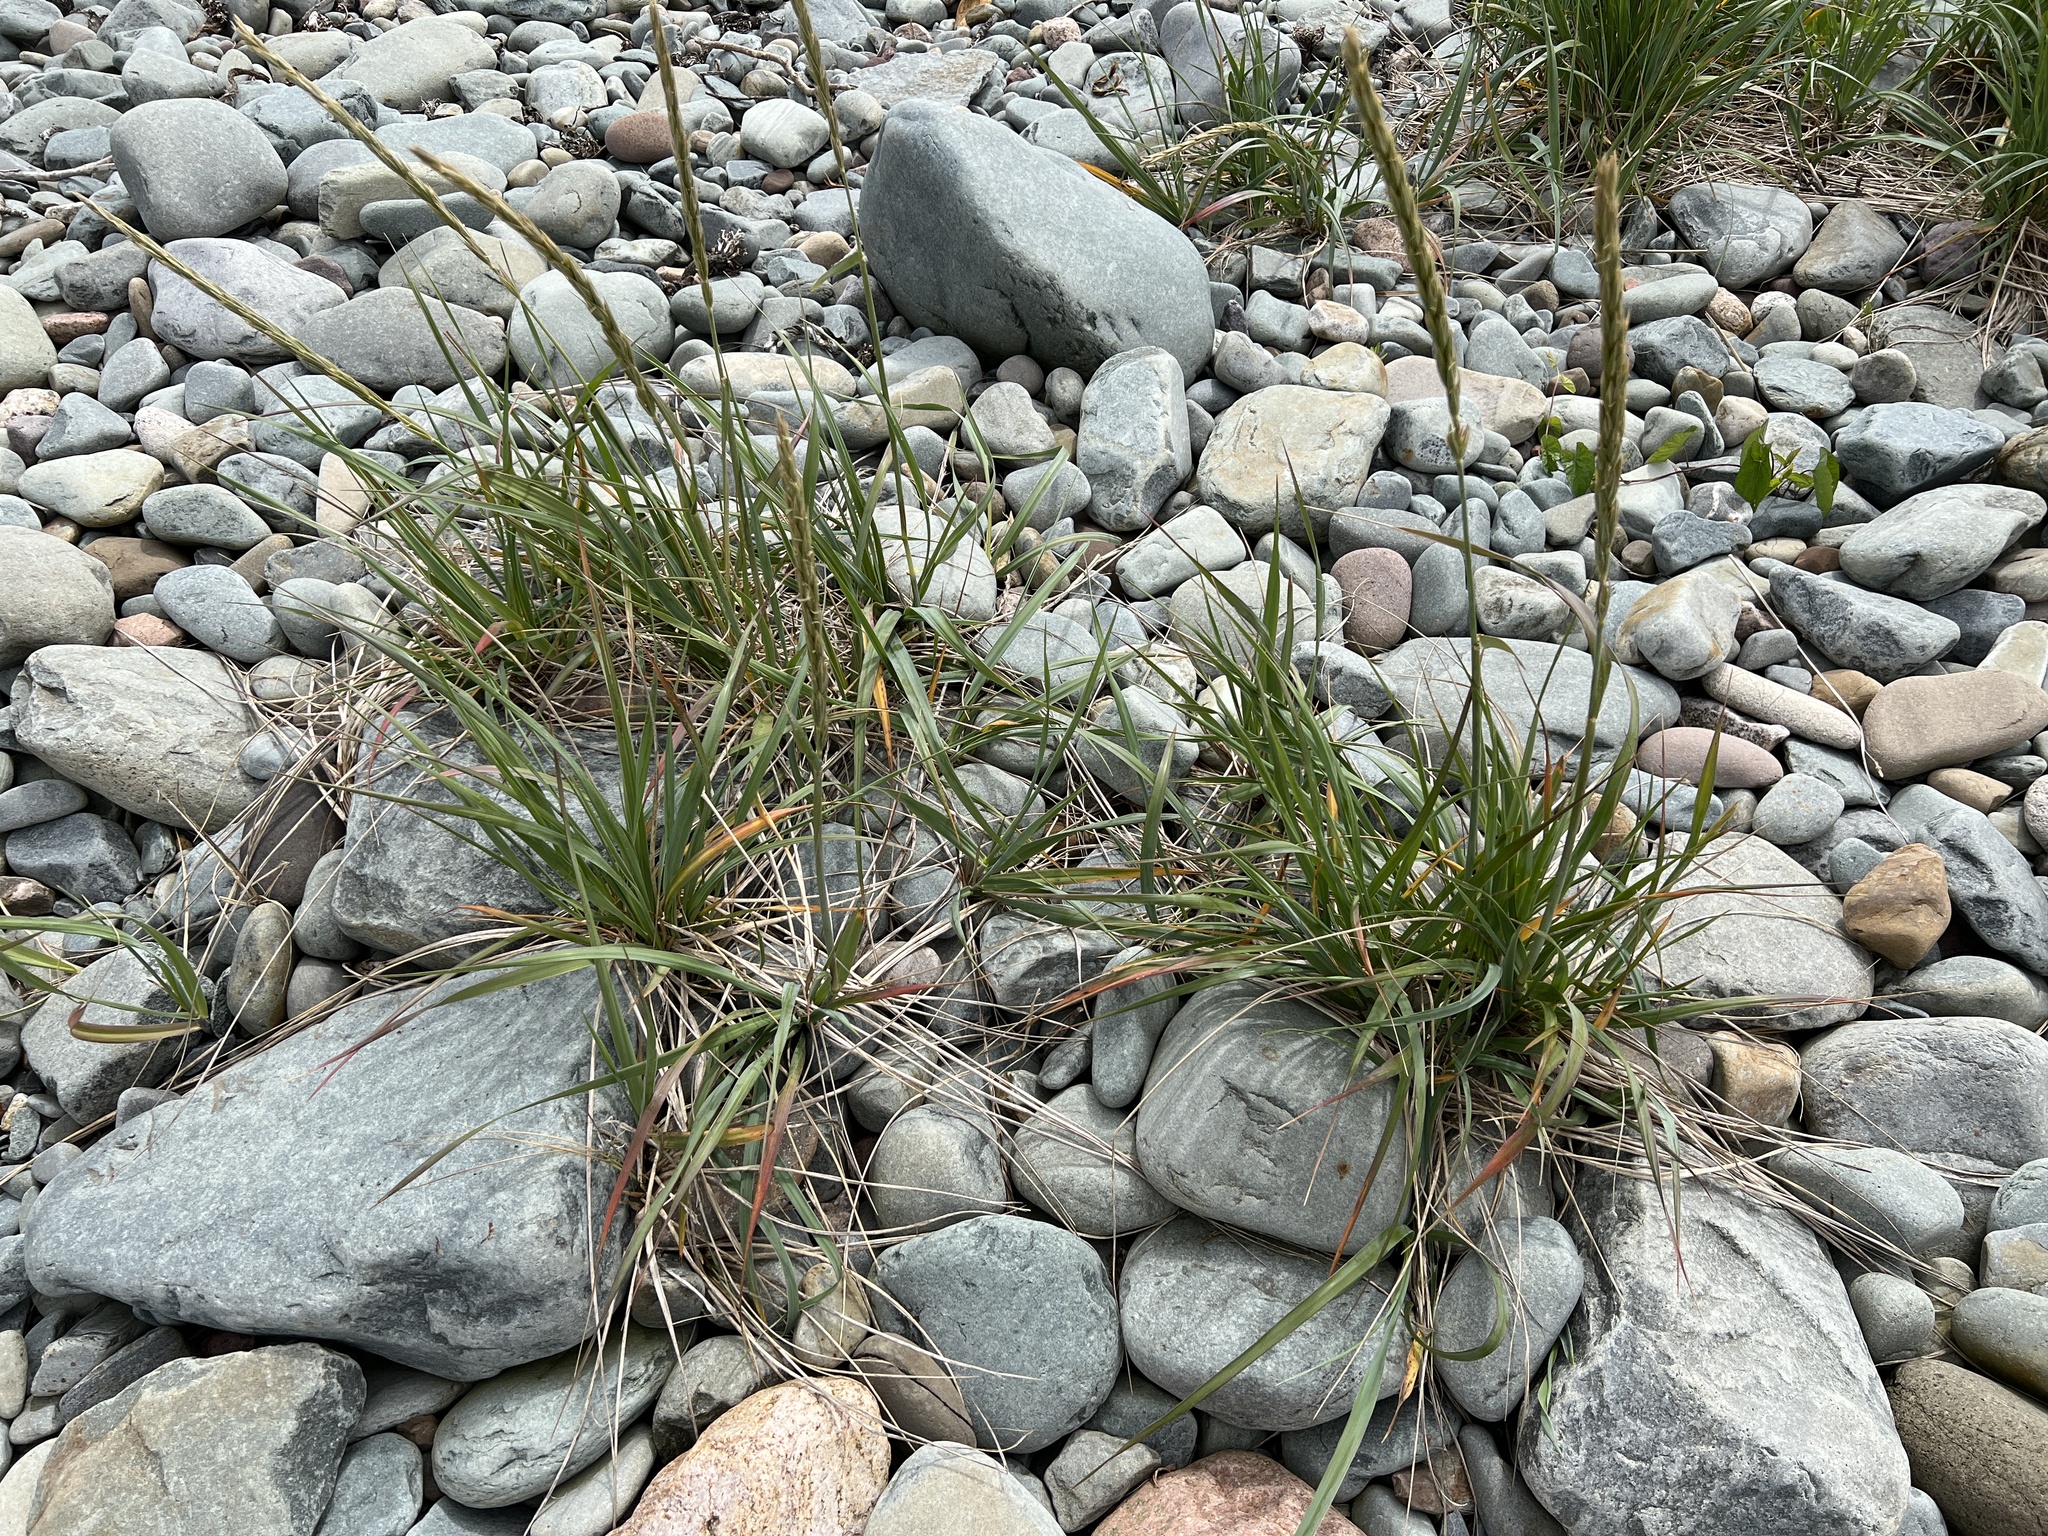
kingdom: Plantae
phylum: Tracheophyta
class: Liliopsida
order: Poales
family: Poaceae
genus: Leymus
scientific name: Leymus mollis
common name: American dune grass
